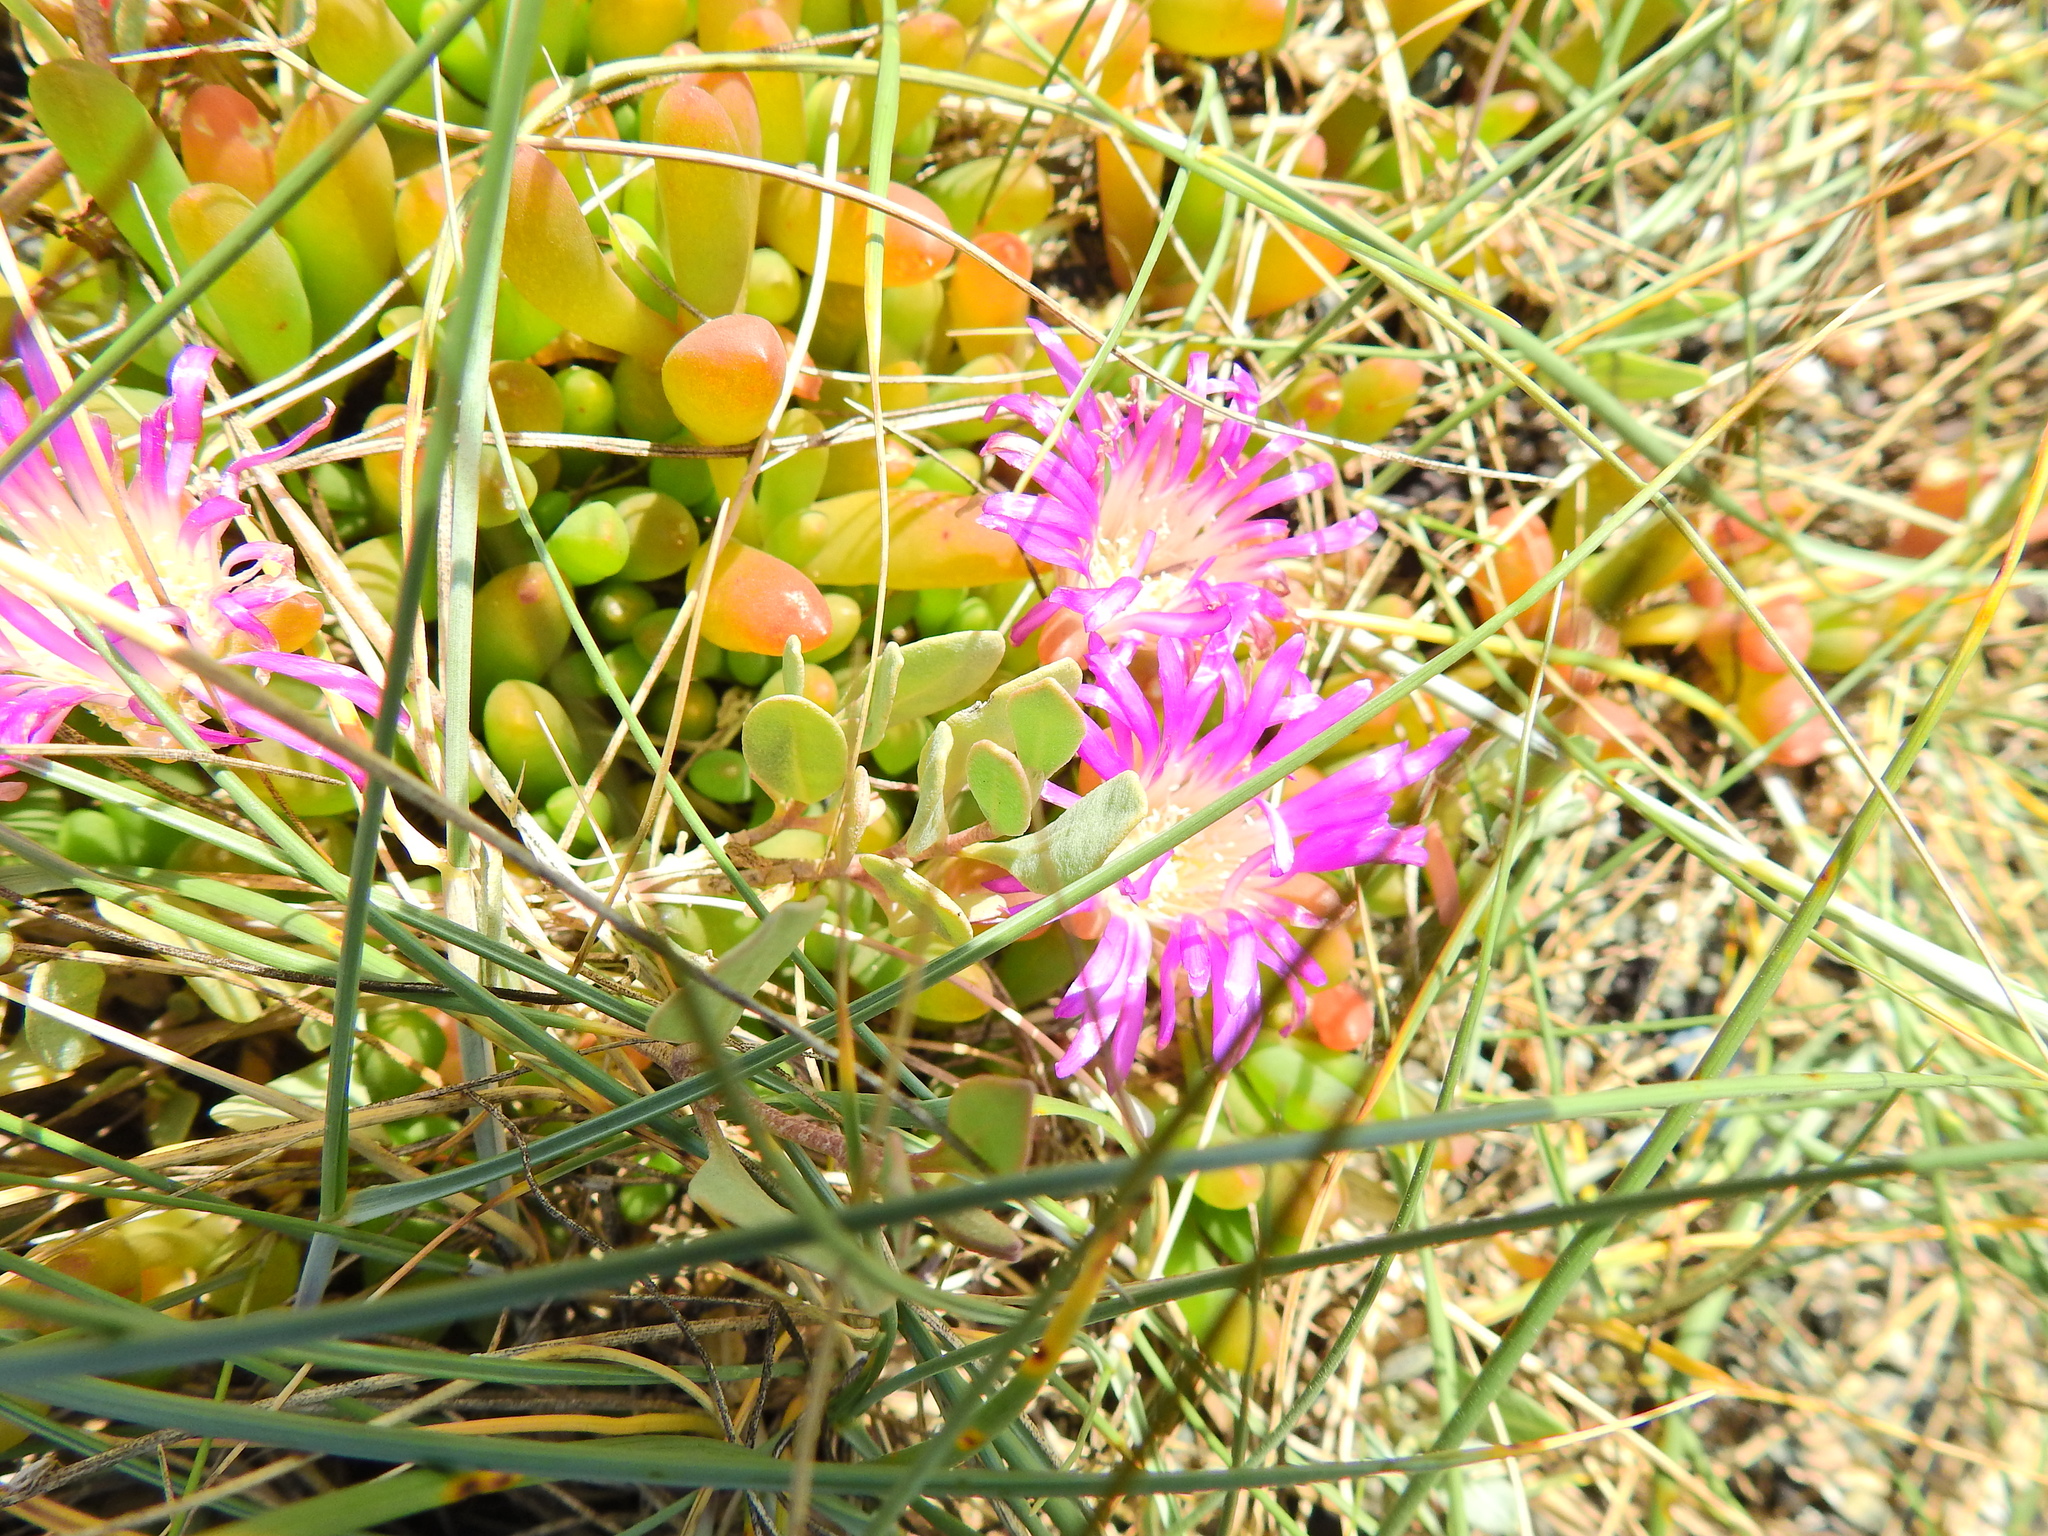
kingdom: Plantae
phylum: Tracheophyta
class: Magnoliopsida
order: Caryophyllales
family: Aizoaceae
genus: Disphyma
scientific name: Disphyma crassifolium
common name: Purple dewplant
